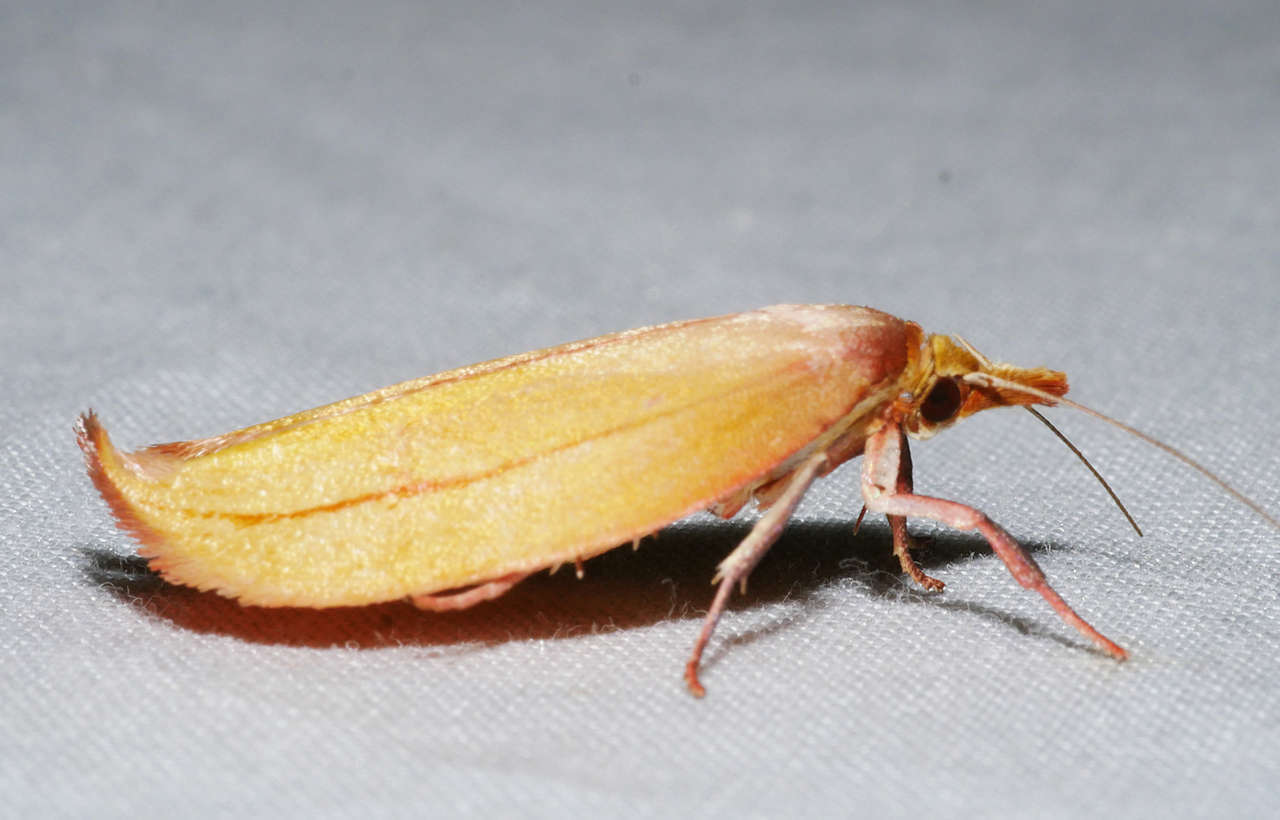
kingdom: Animalia
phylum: Arthropoda
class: Insecta
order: Lepidoptera
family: Oecophoridae
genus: Wingia
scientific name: Wingia aurata
